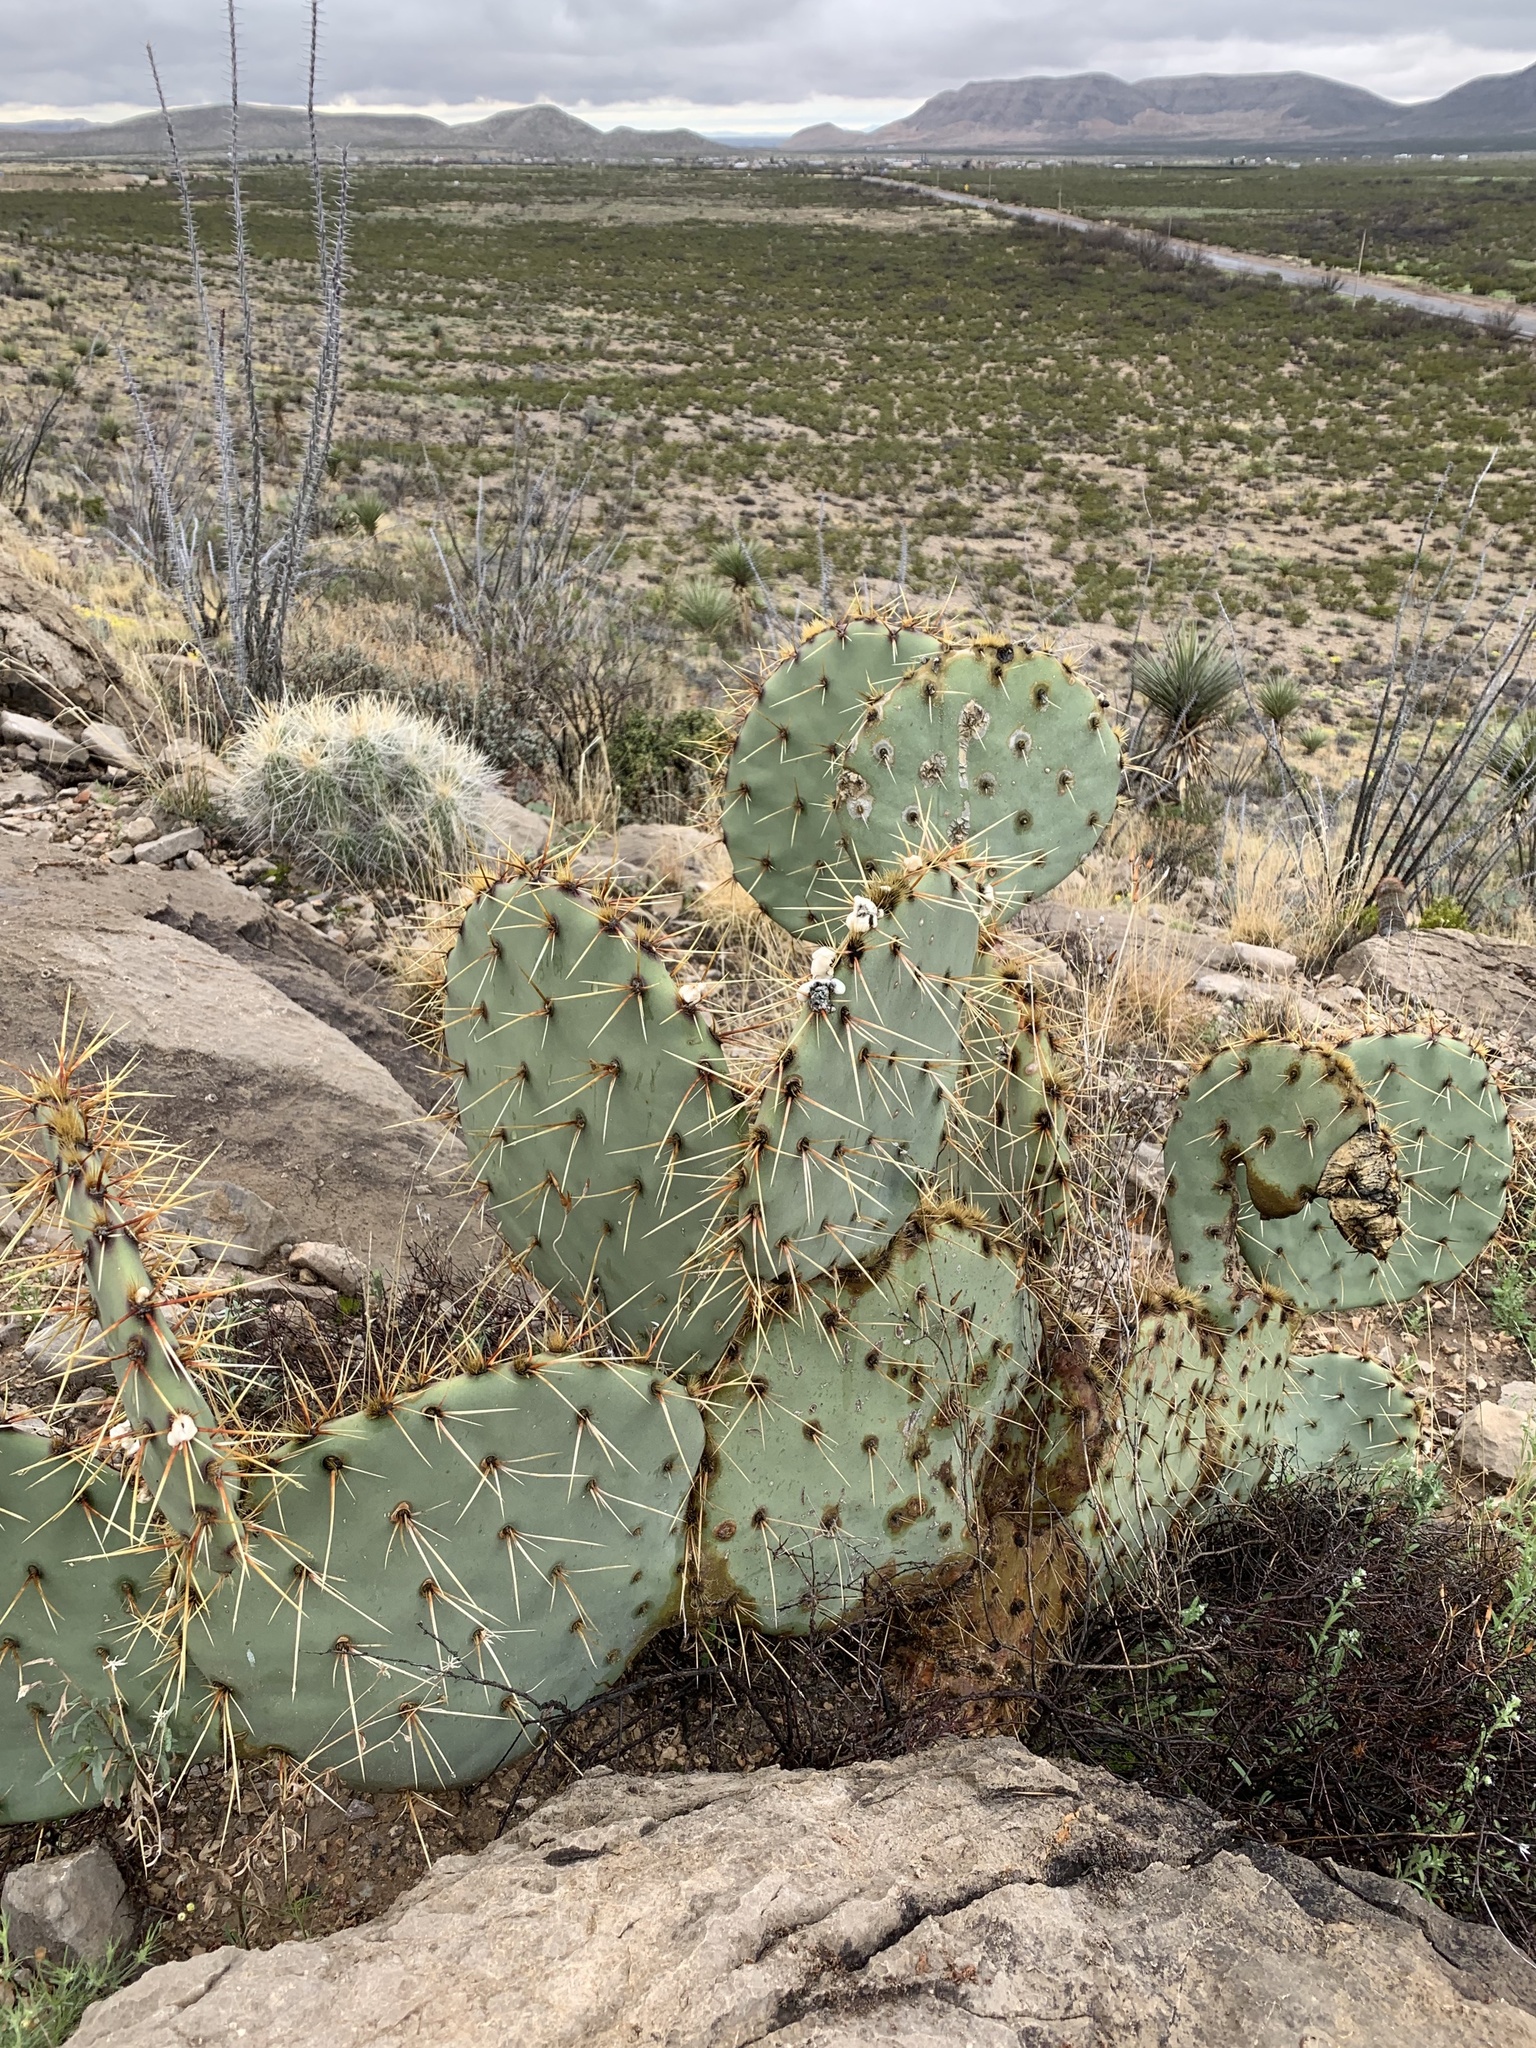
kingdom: Plantae
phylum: Tracheophyta
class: Magnoliopsida
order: Caryophyllales
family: Cactaceae
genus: Opuntia
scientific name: Opuntia engelmannii
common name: Cactus-apple
